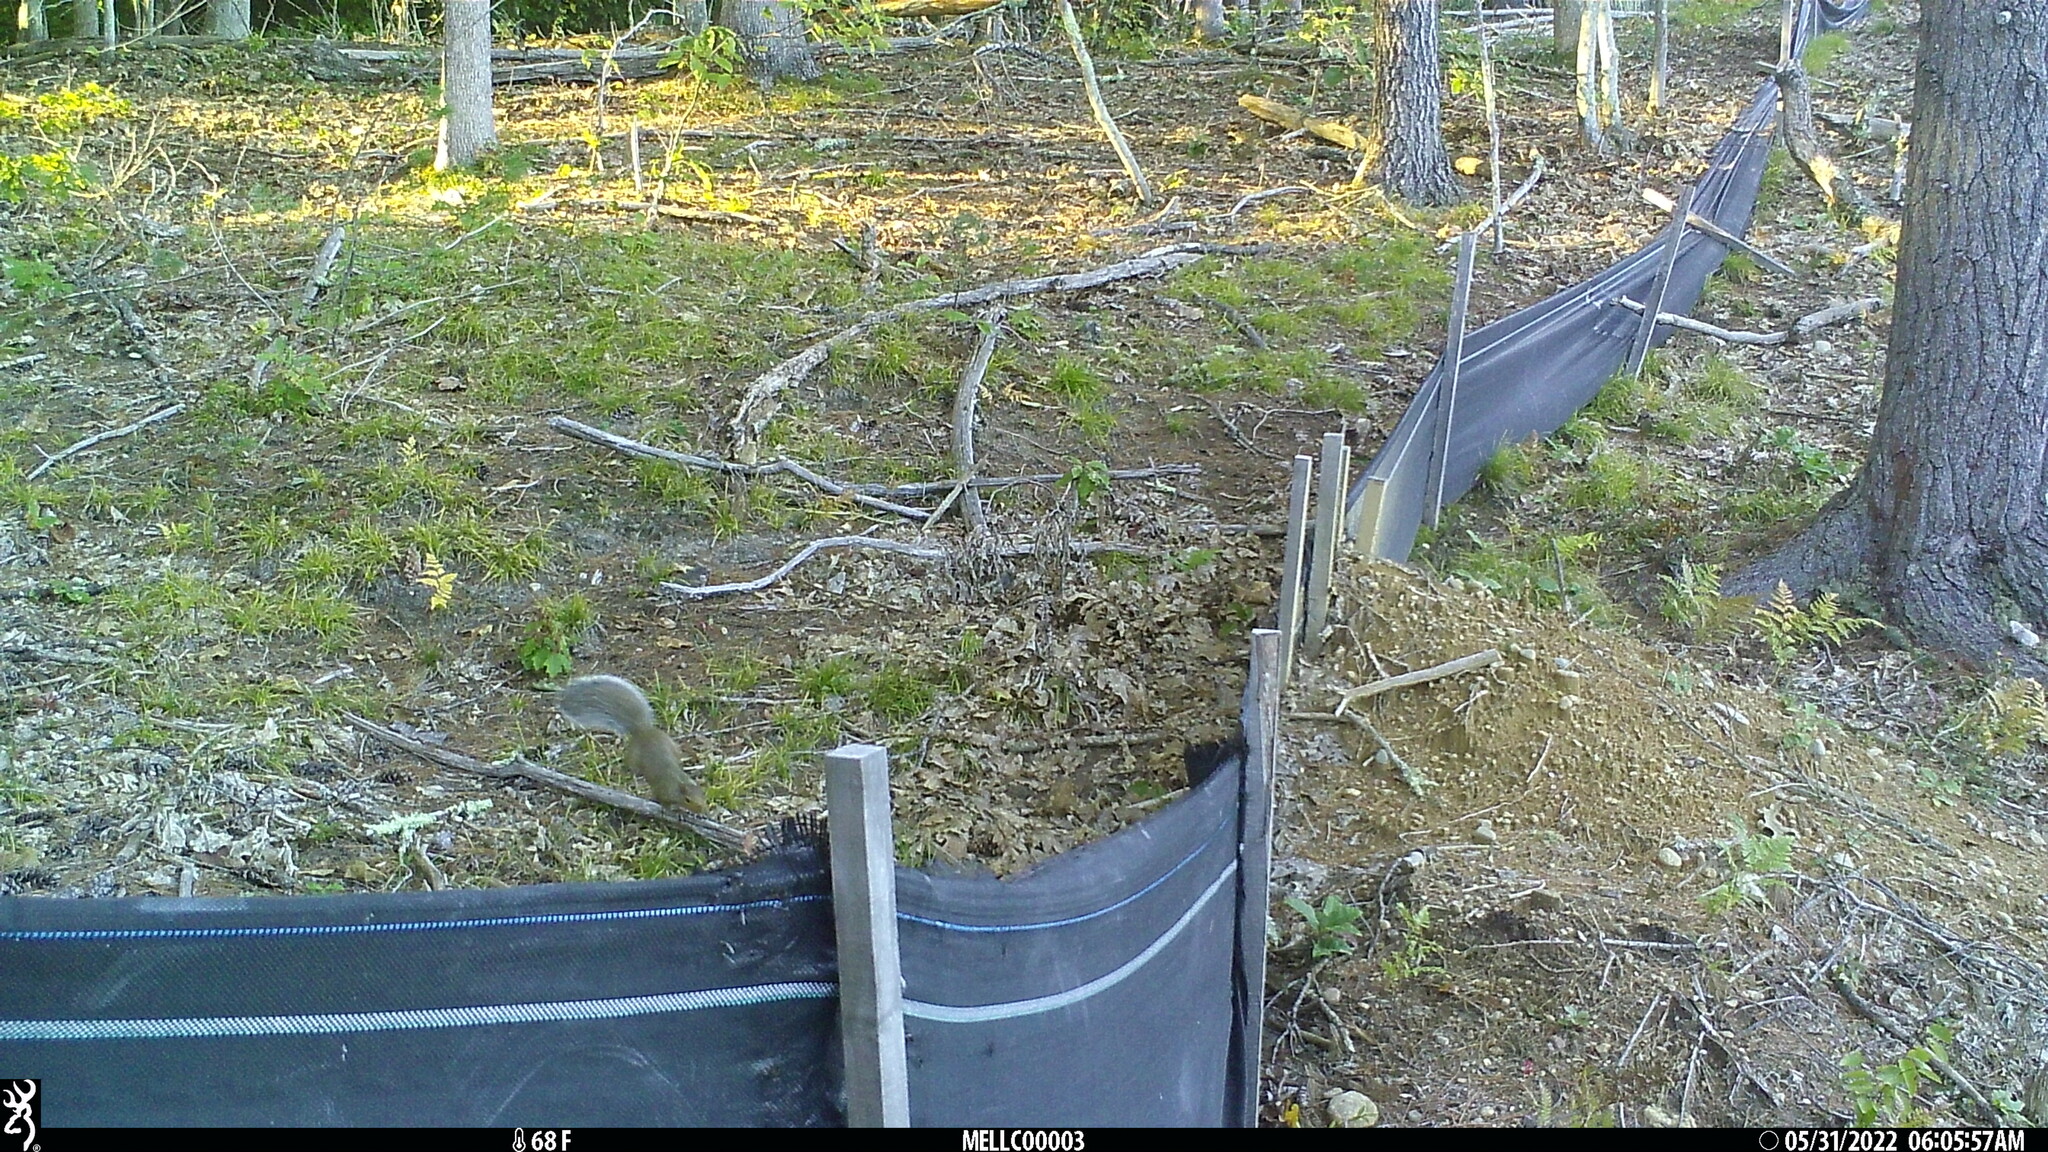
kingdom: Animalia
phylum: Chordata
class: Mammalia
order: Rodentia
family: Sciuridae
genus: Sciurus
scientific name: Sciurus carolinensis
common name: Eastern gray squirrel
